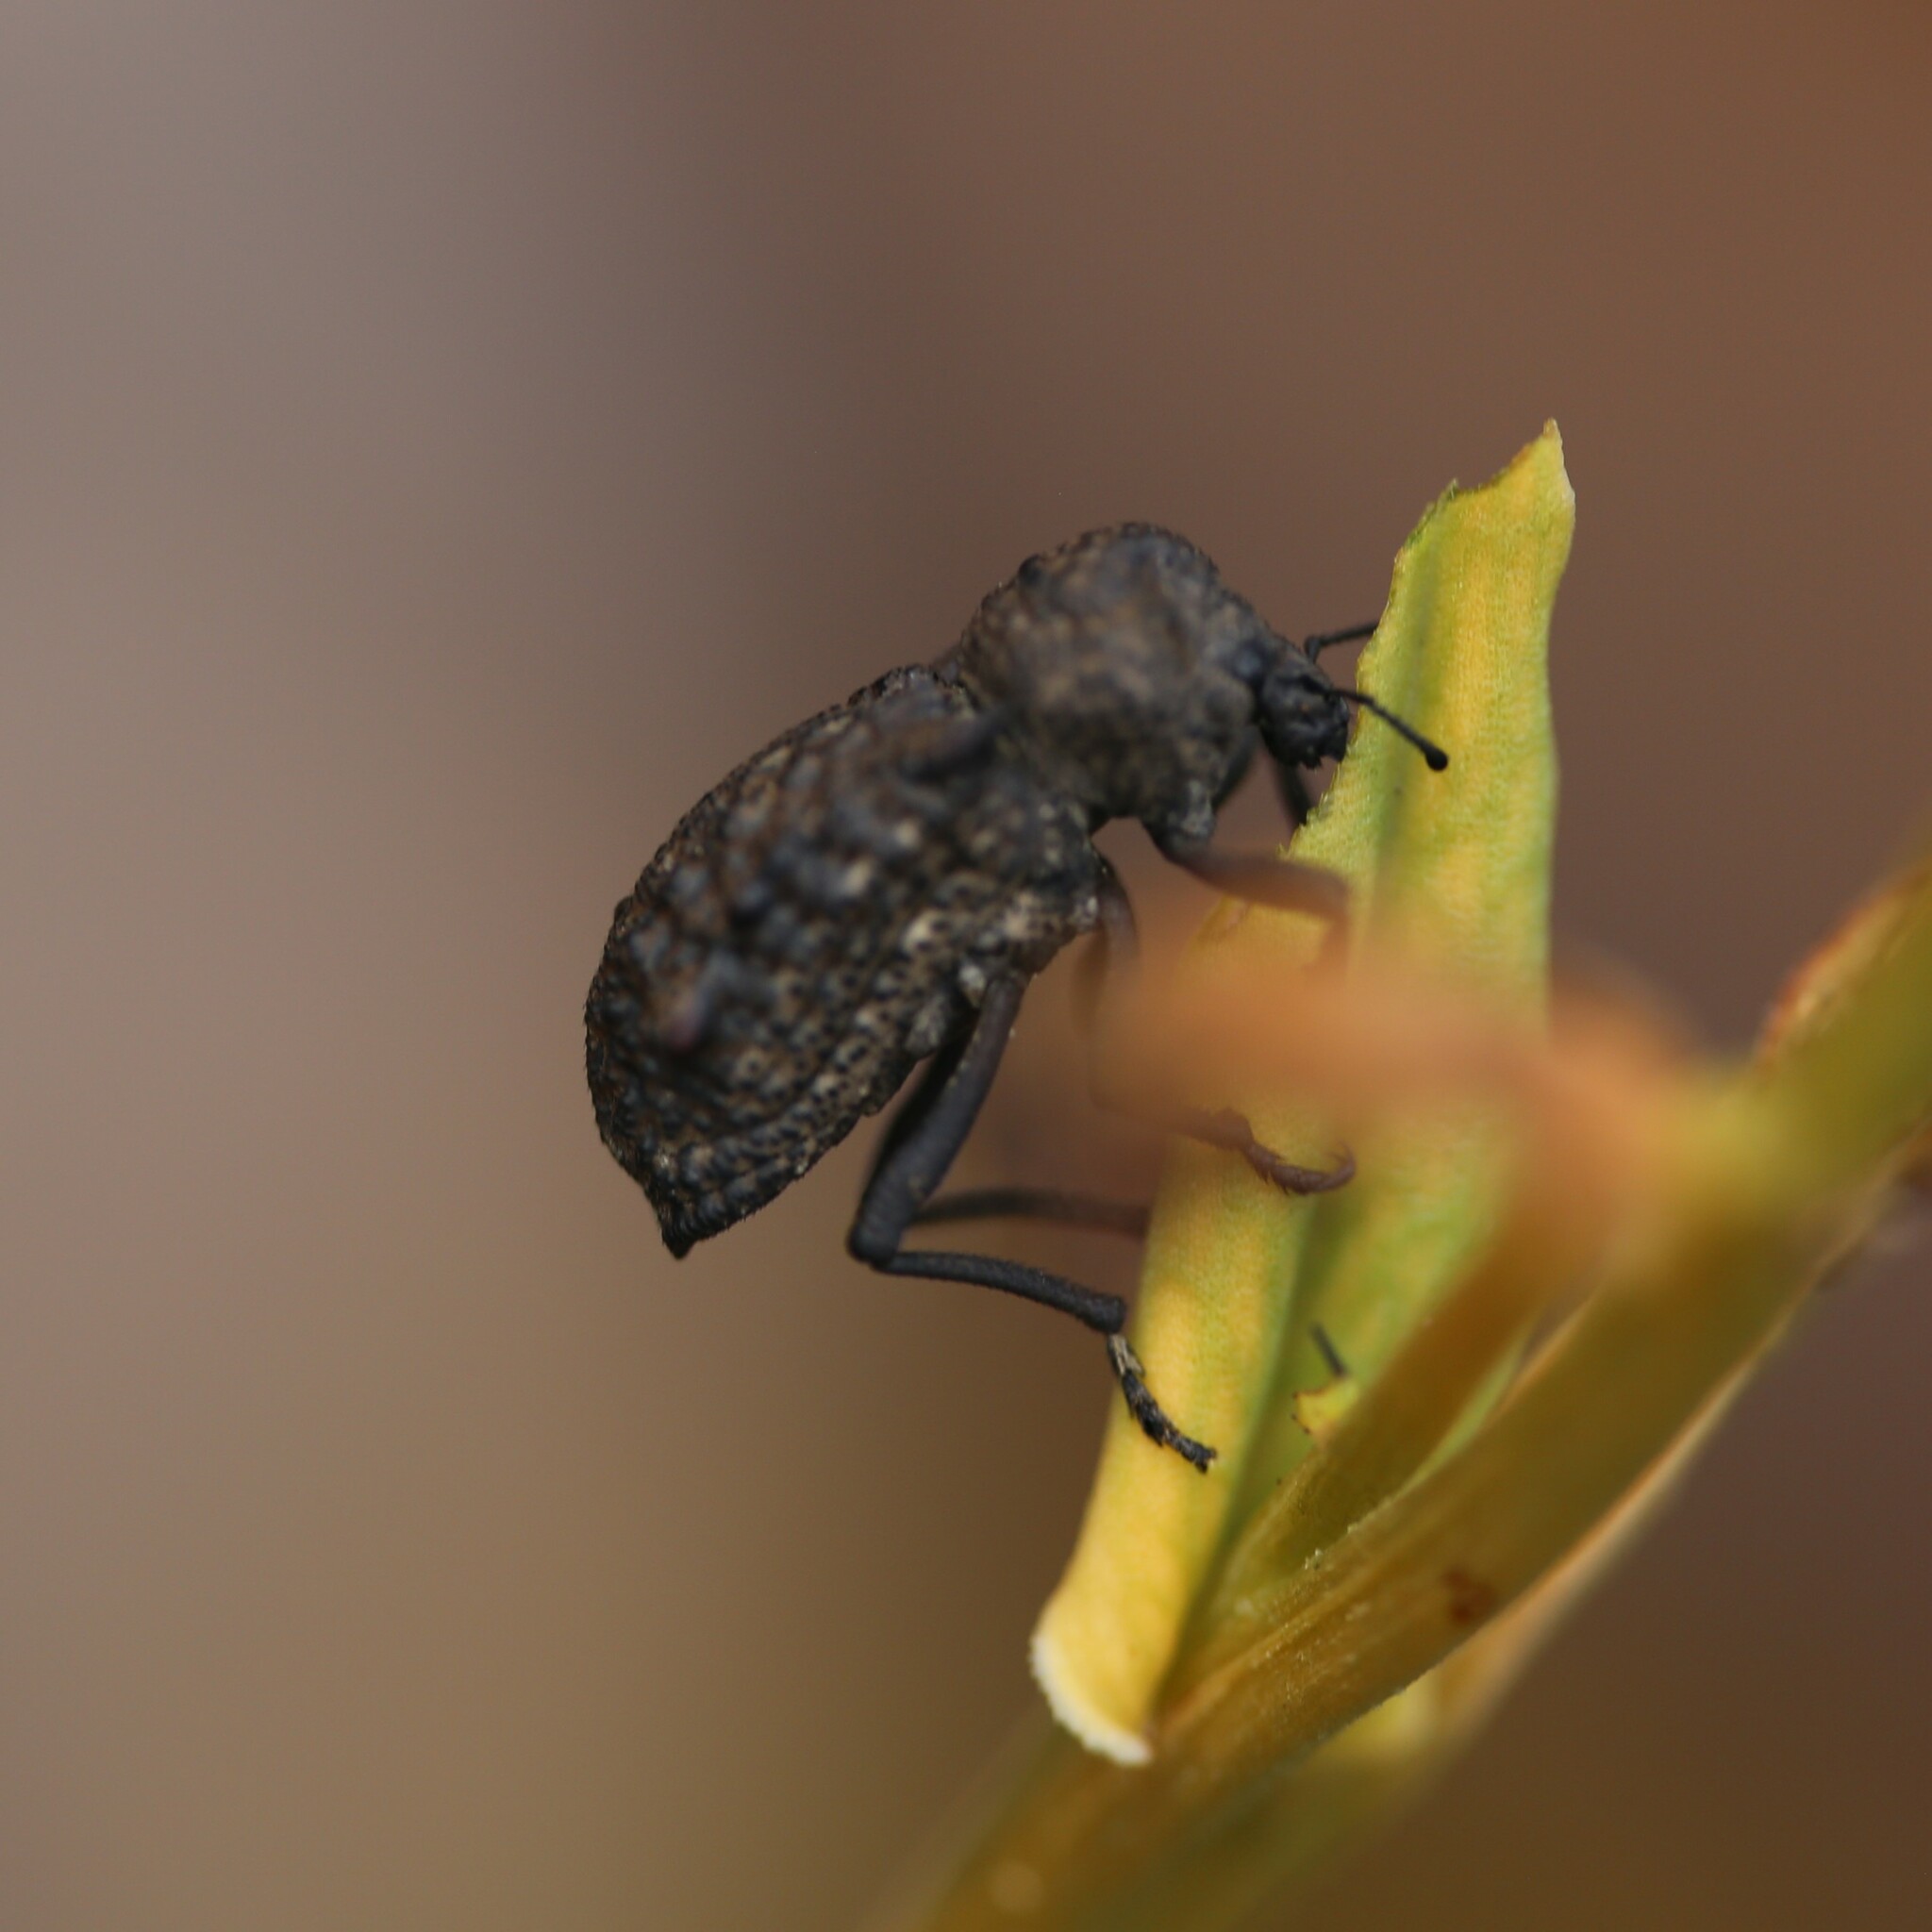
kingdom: Animalia
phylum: Arthropoda
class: Insecta
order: Coleoptera
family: Curculionidae
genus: Euomus
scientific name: Euomus scorpio
